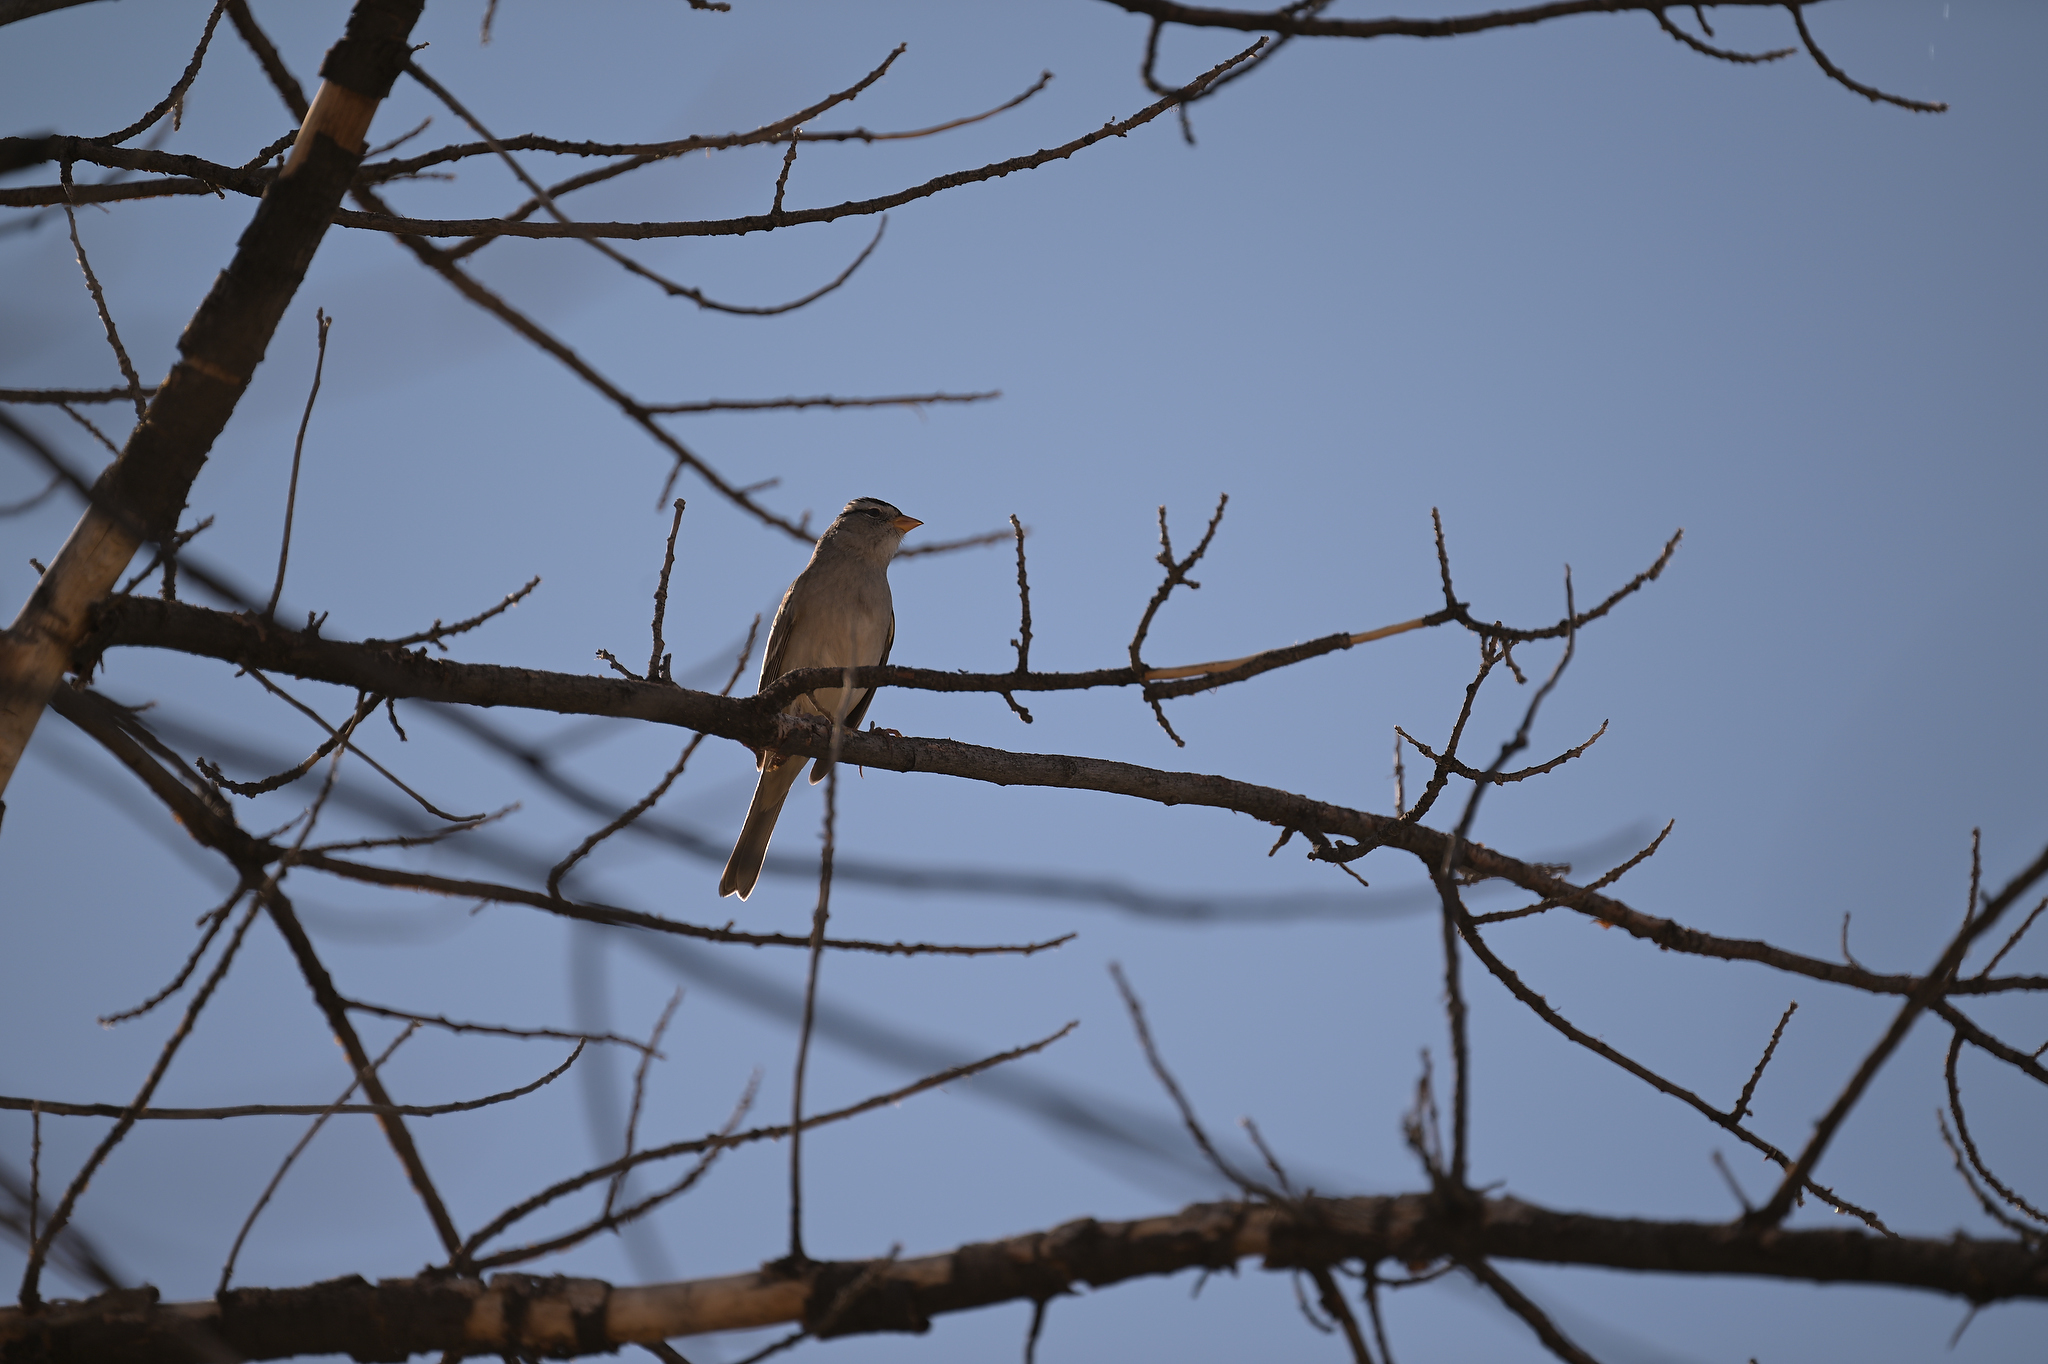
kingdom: Animalia
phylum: Chordata
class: Aves
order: Passeriformes
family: Passerellidae
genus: Zonotrichia
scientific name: Zonotrichia leucophrys
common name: White-crowned sparrow
